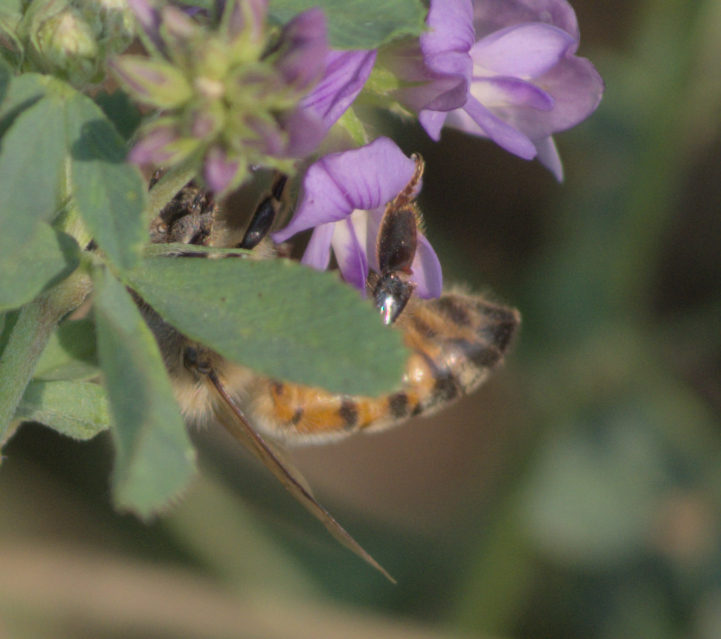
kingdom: Animalia
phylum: Arthropoda
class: Insecta
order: Hymenoptera
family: Apidae
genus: Apis
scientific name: Apis mellifera
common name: Honey bee
